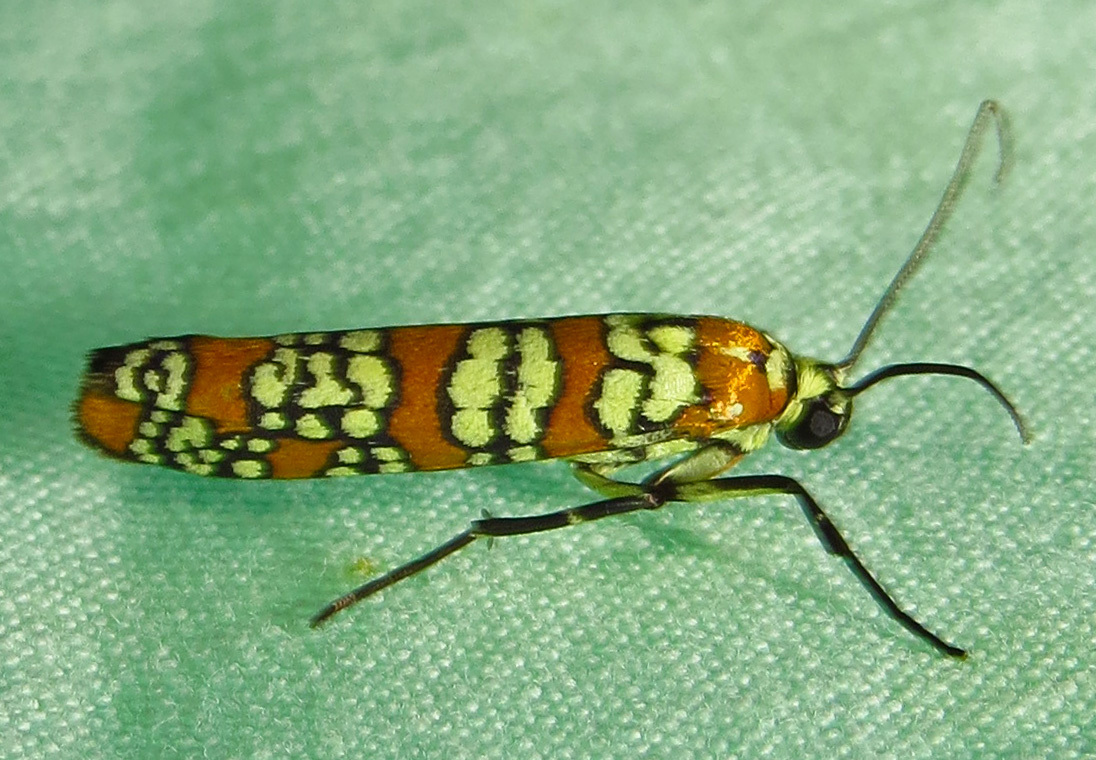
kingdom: Animalia
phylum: Arthropoda
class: Insecta
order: Lepidoptera
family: Attevidae
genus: Atteva
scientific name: Atteva punctella
